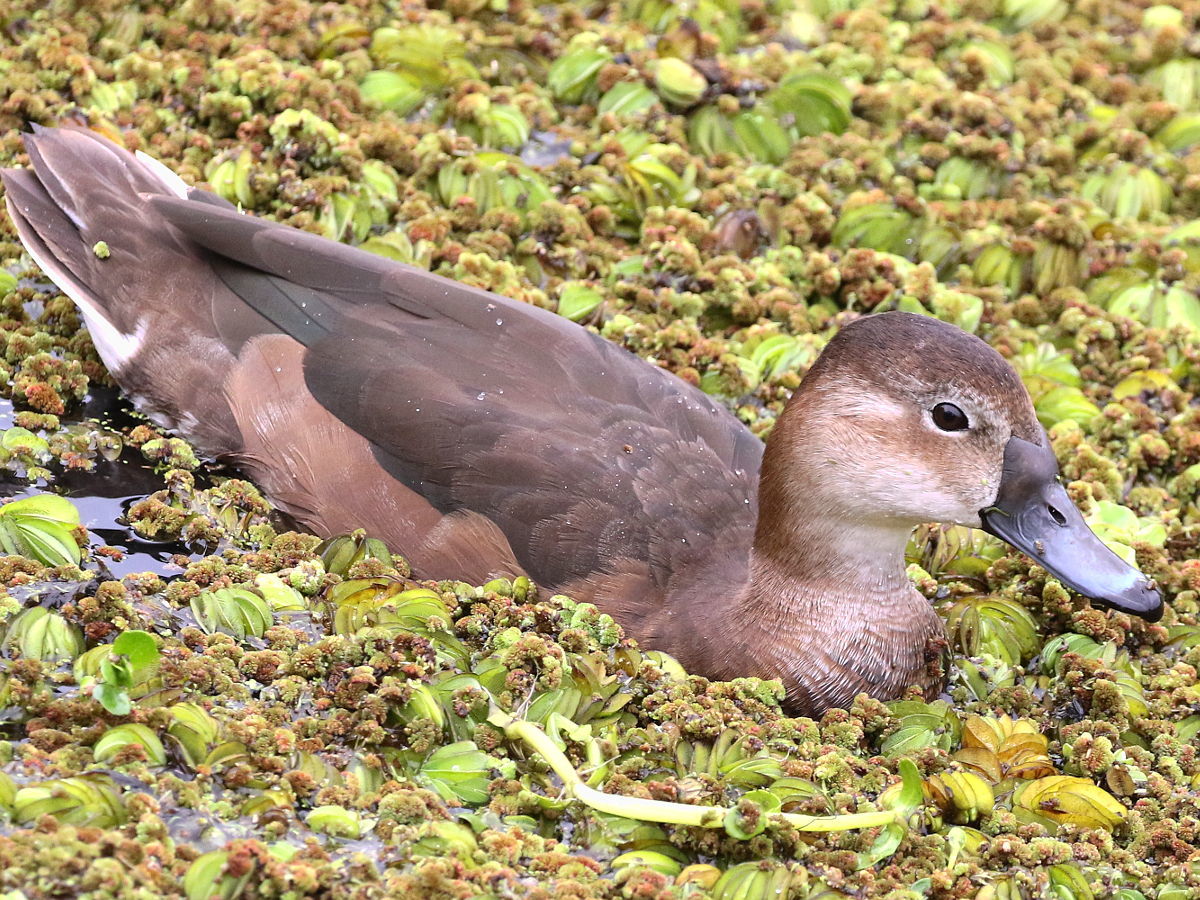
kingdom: Animalia
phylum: Chordata
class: Aves
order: Anseriformes
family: Anatidae
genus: Netta
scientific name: Netta peposaca
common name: Rosy-billed pochard
